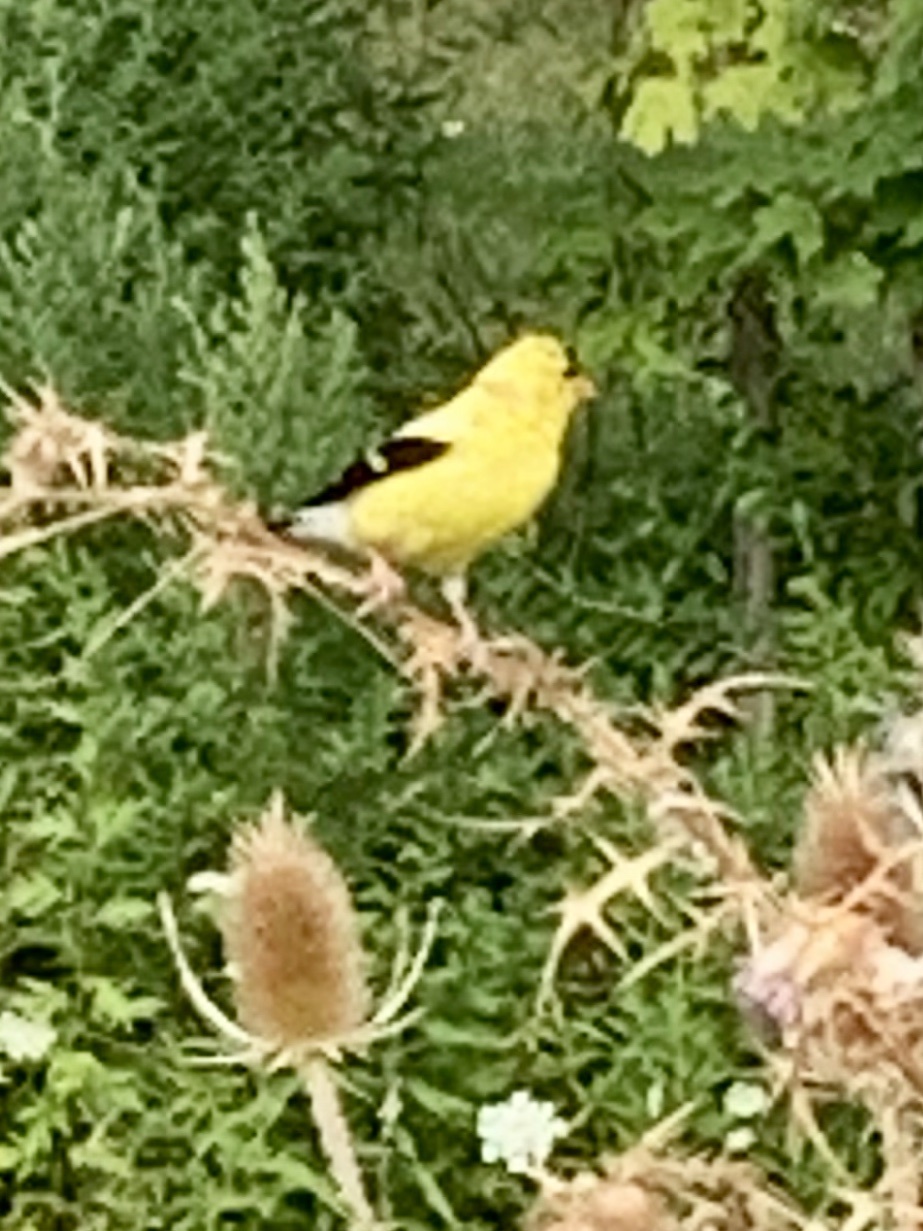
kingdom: Animalia
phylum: Chordata
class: Aves
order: Passeriformes
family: Fringillidae
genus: Spinus
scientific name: Spinus tristis
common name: American goldfinch
